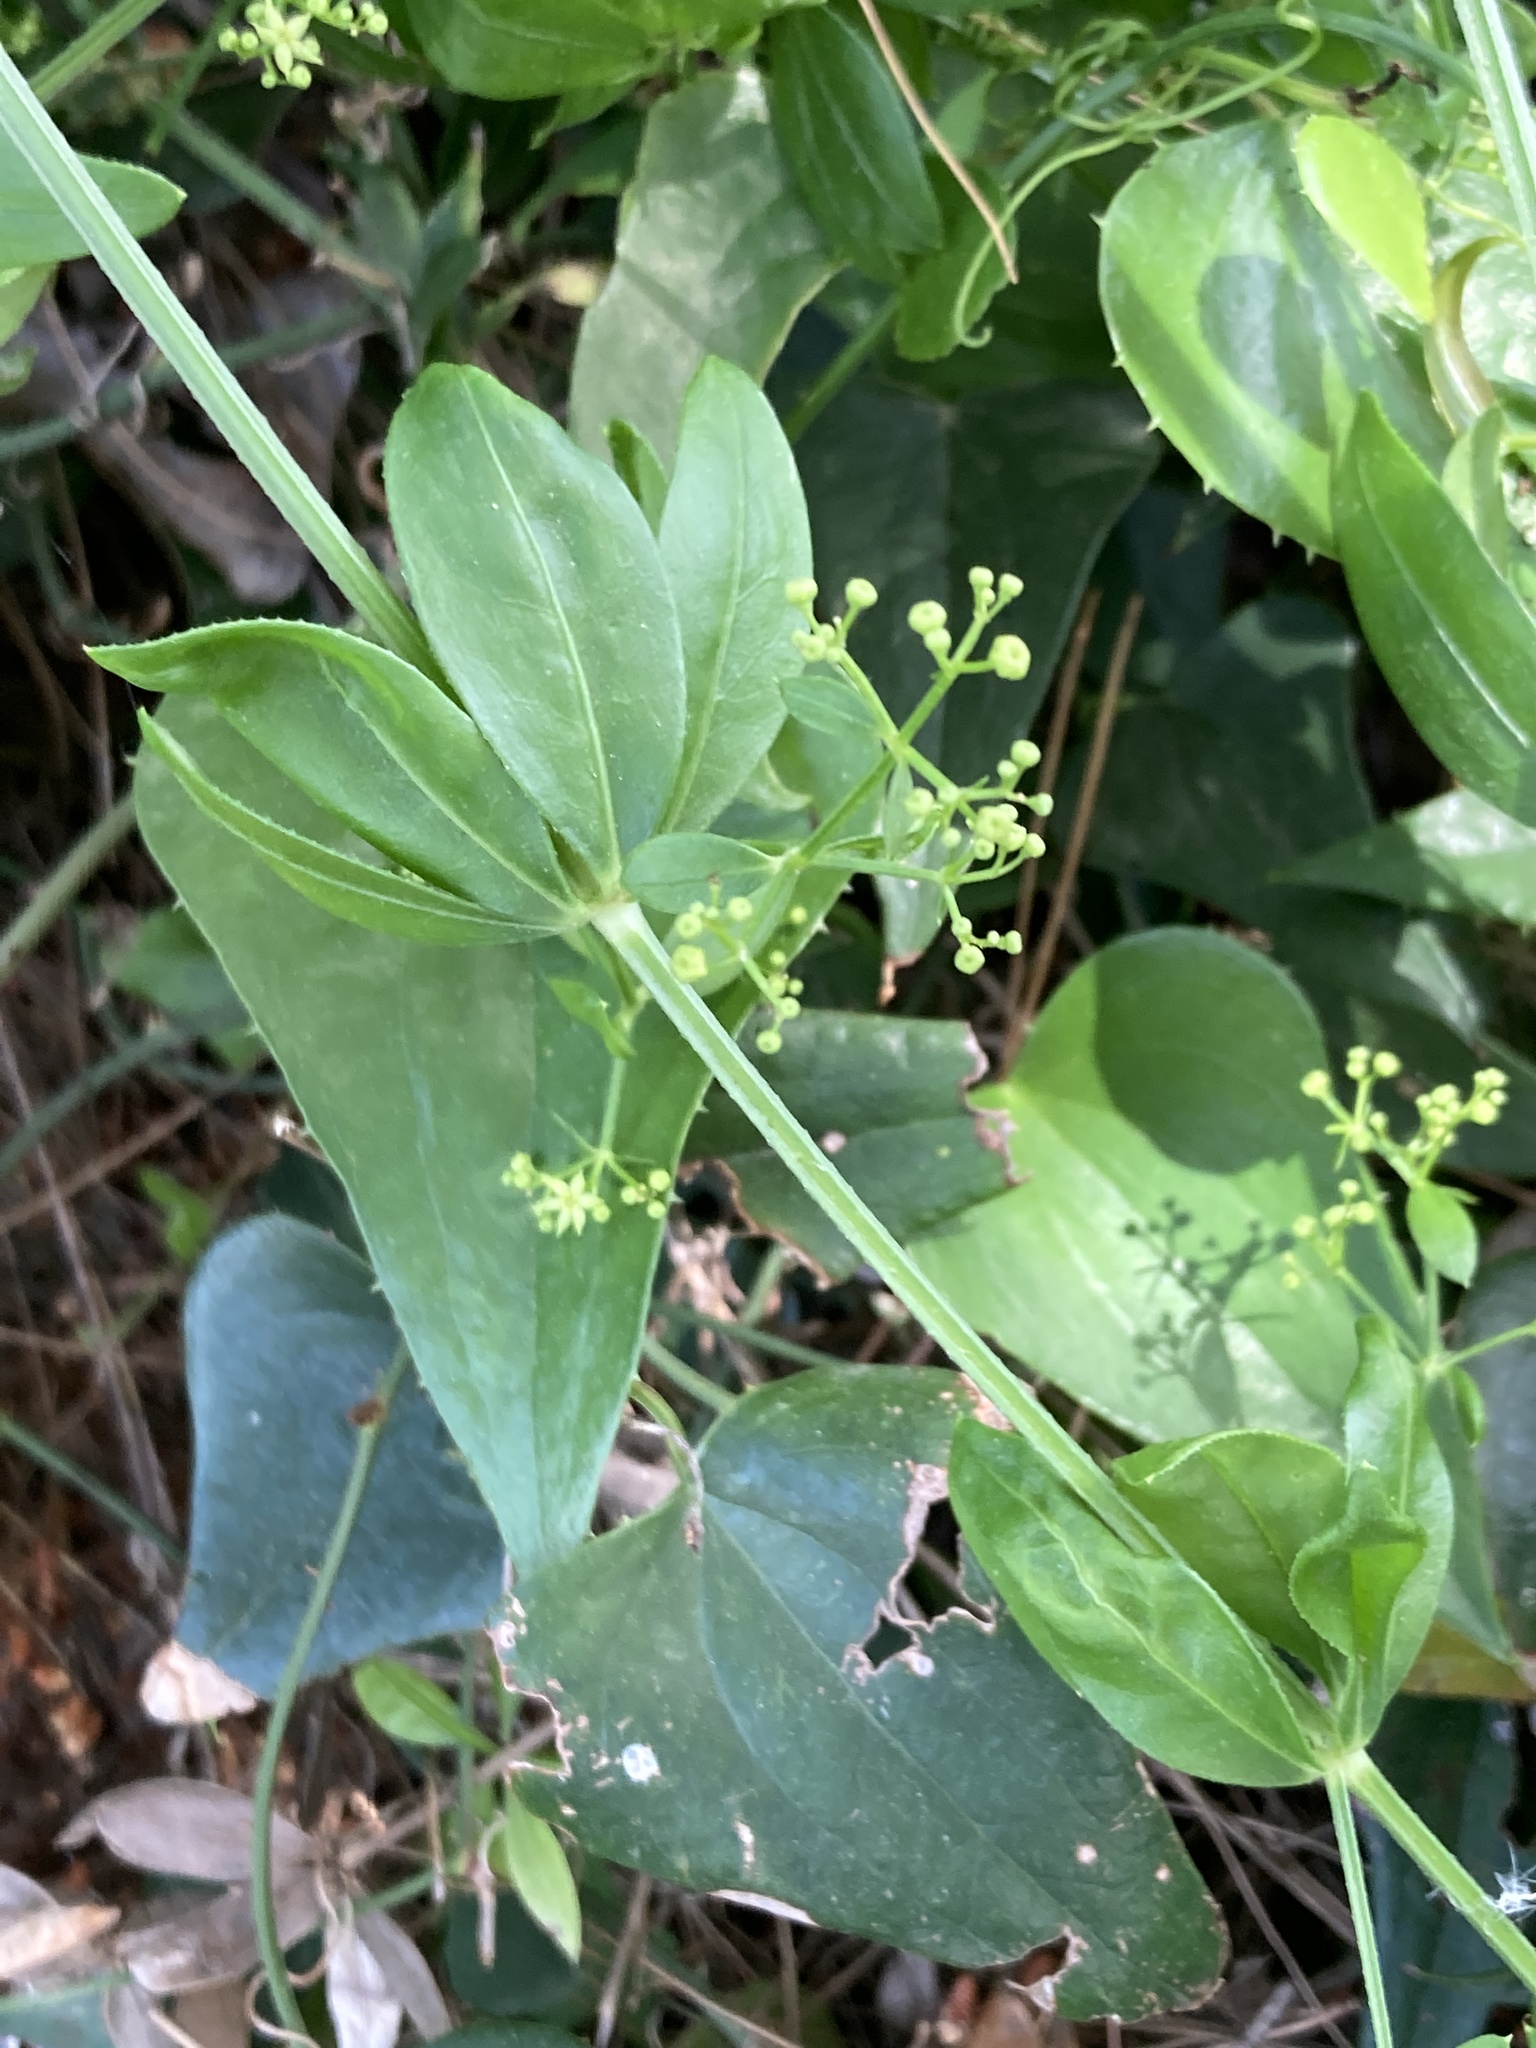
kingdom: Plantae
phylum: Tracheophyta
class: Magnoliopsida
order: Gentianales
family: Rubiaceae
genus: Rubia
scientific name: Rubia peregrina
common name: Wild madder
